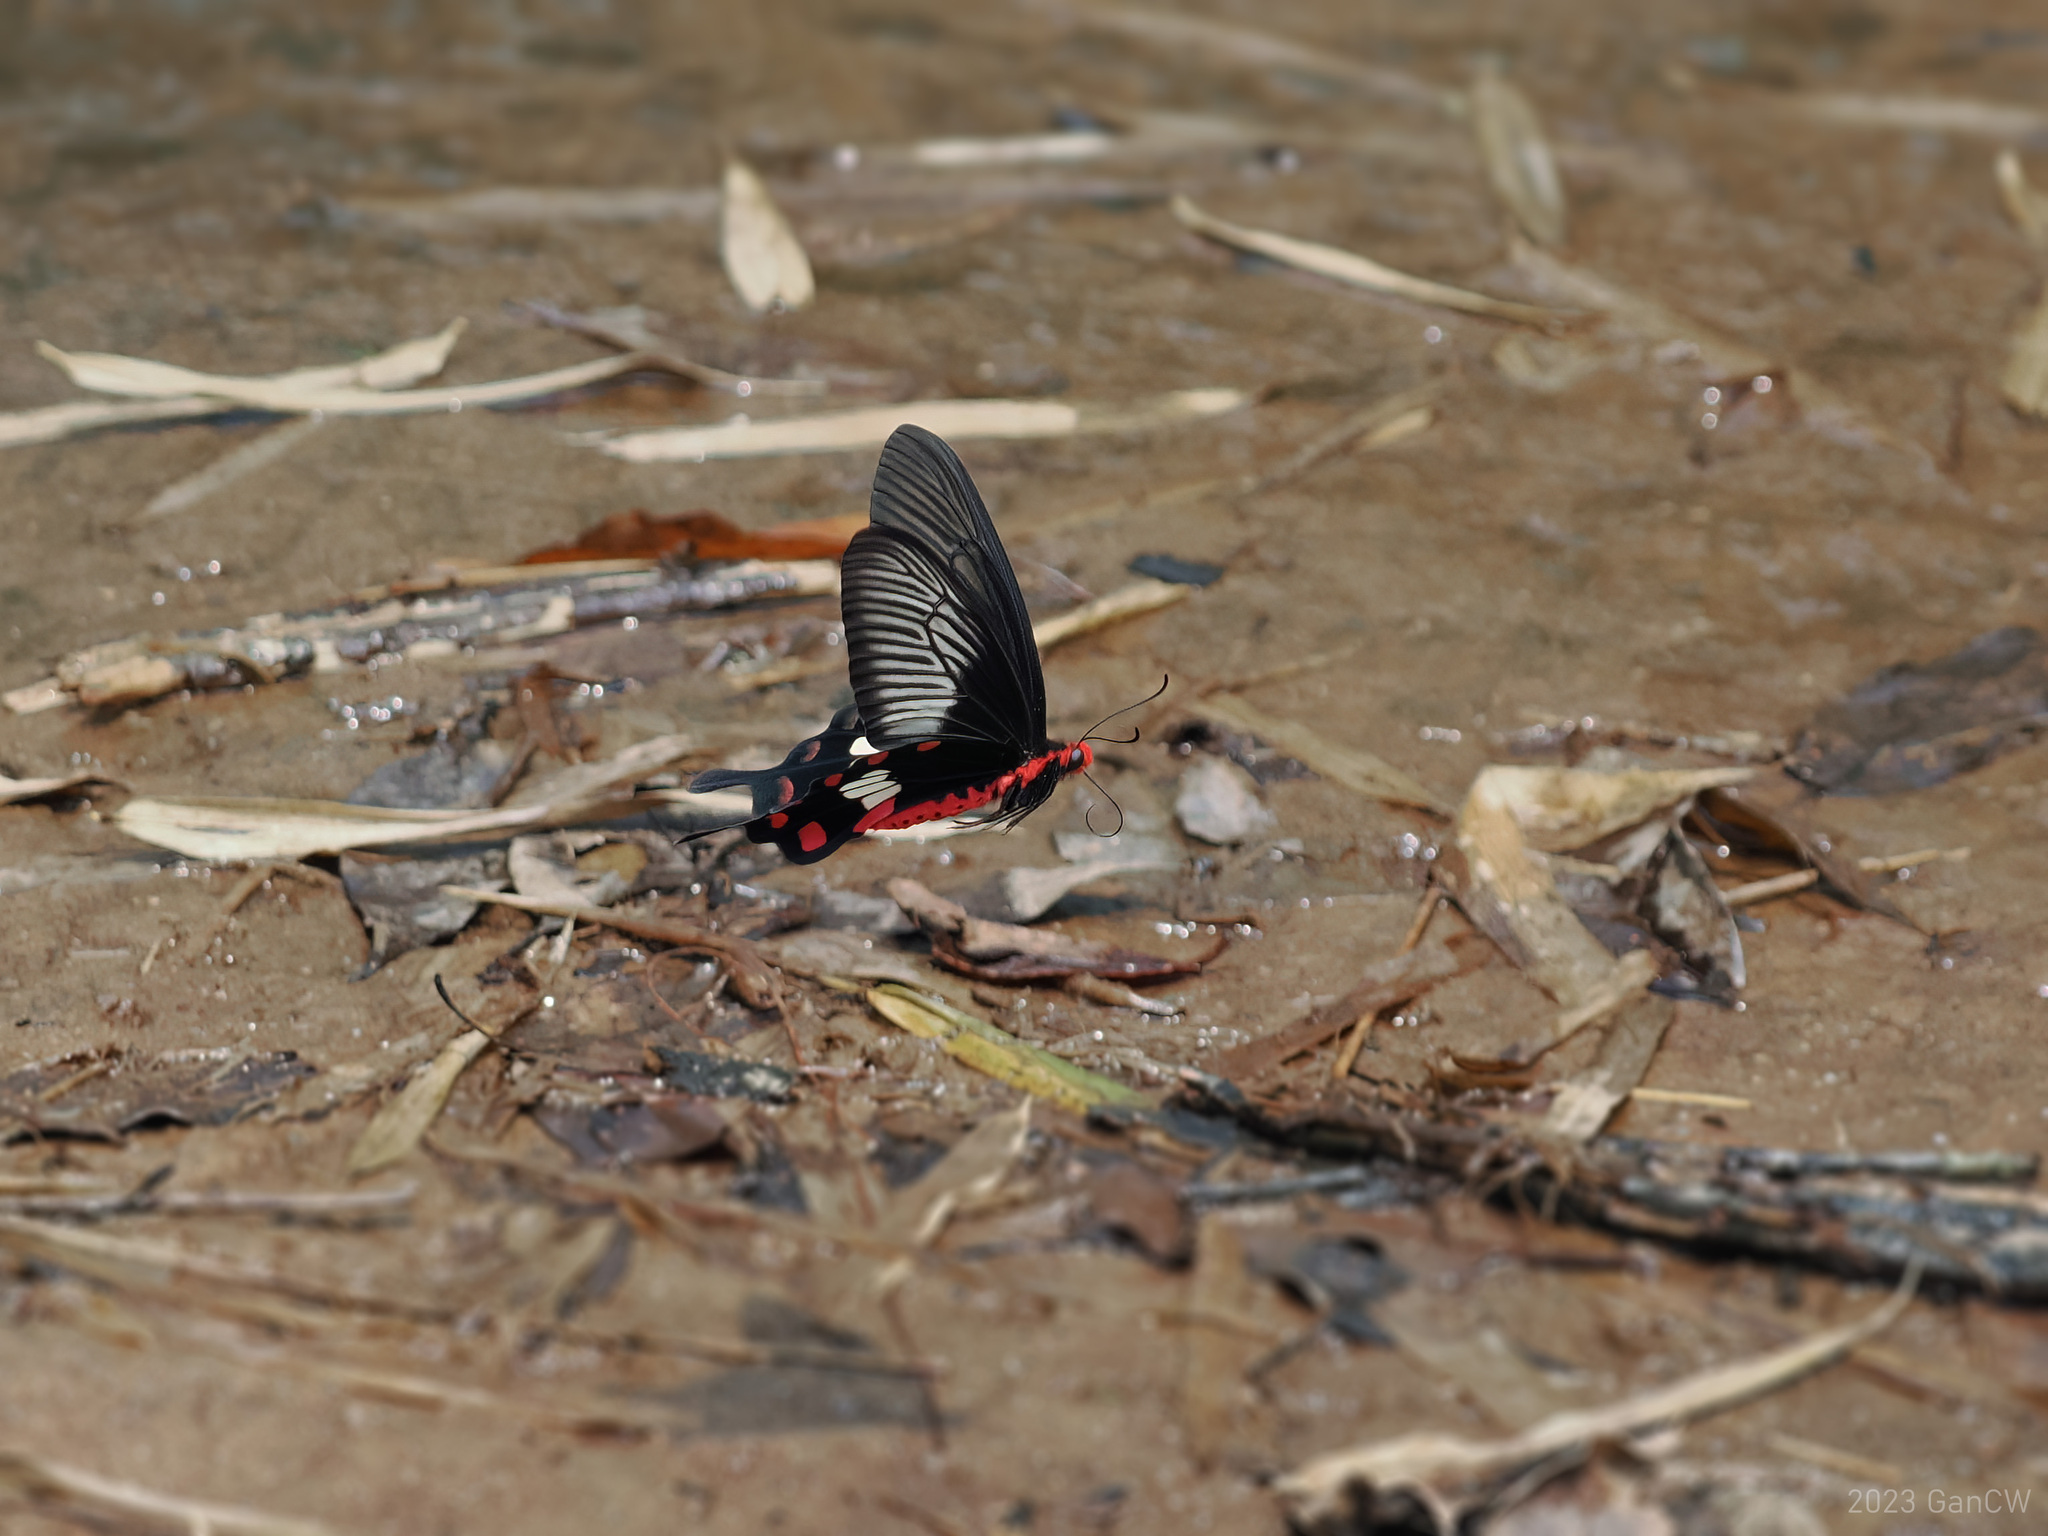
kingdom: Animalia
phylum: Arthropoda
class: Insecta
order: Lepidoptera
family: Papilionidae
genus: Pachliopta
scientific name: Pachliopta aristolochiae
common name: Common rose
